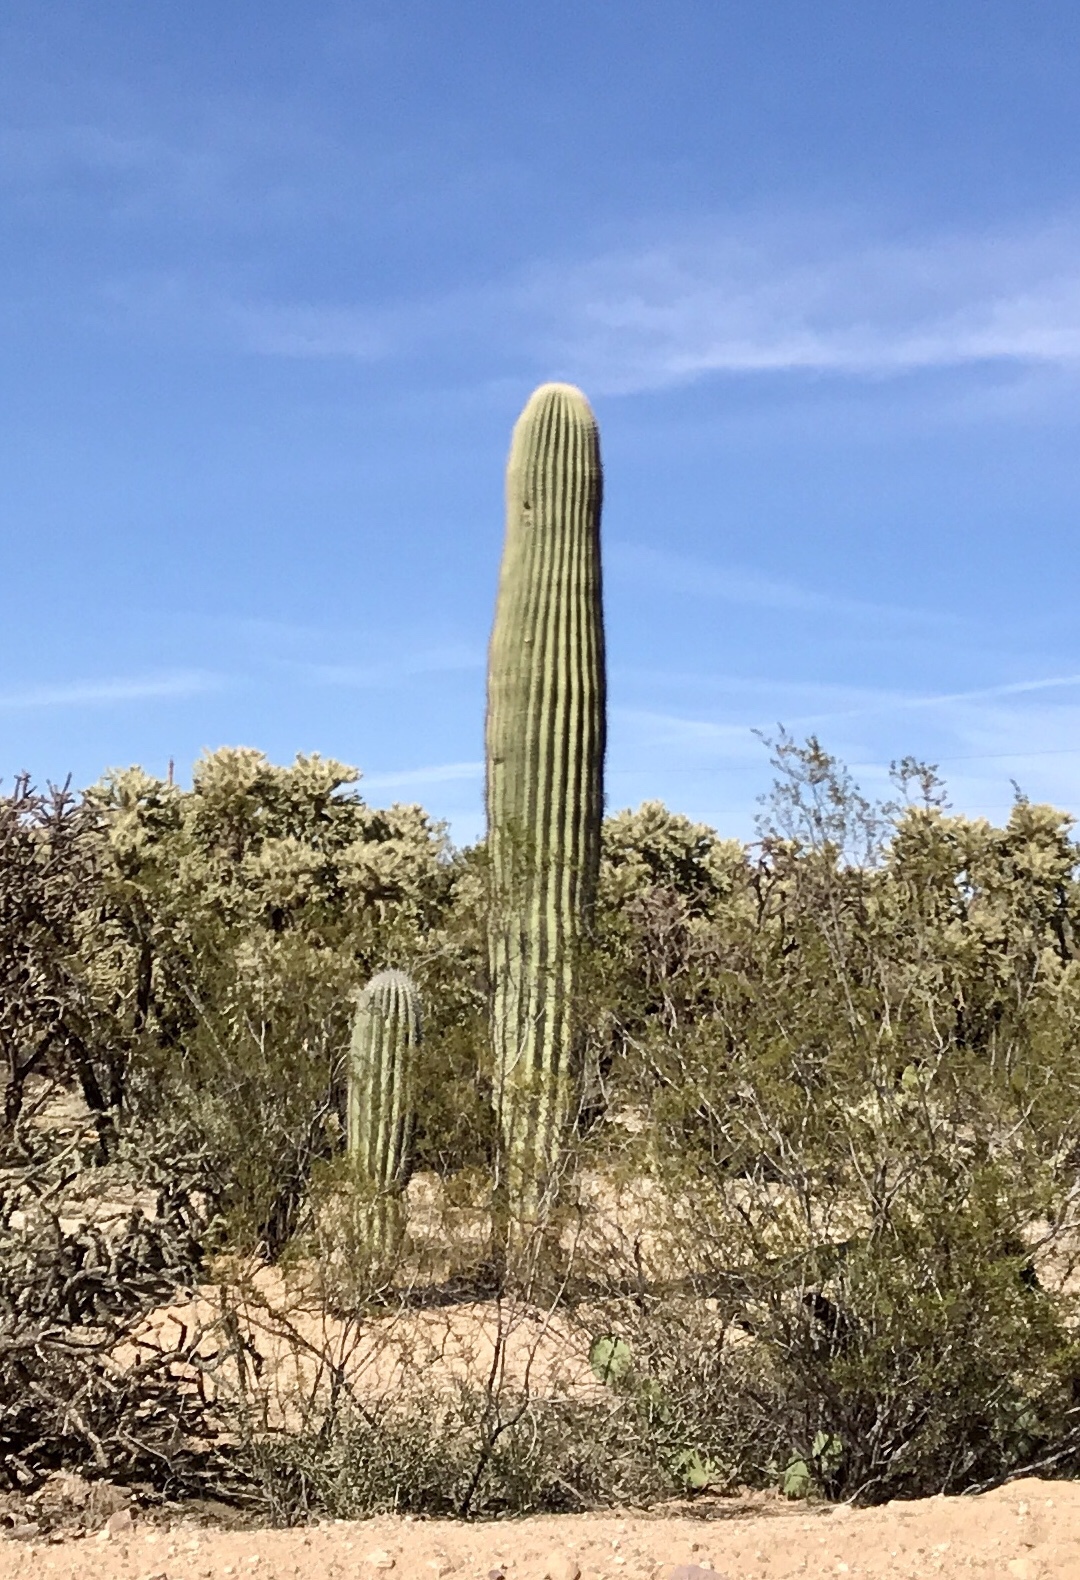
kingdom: Plantae
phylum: Tracheophyta
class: Magnoliopsida
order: Caryophyllales
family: Cactaceae
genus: Carnegiea
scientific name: Carnegiea gigantea
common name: Saguaro
